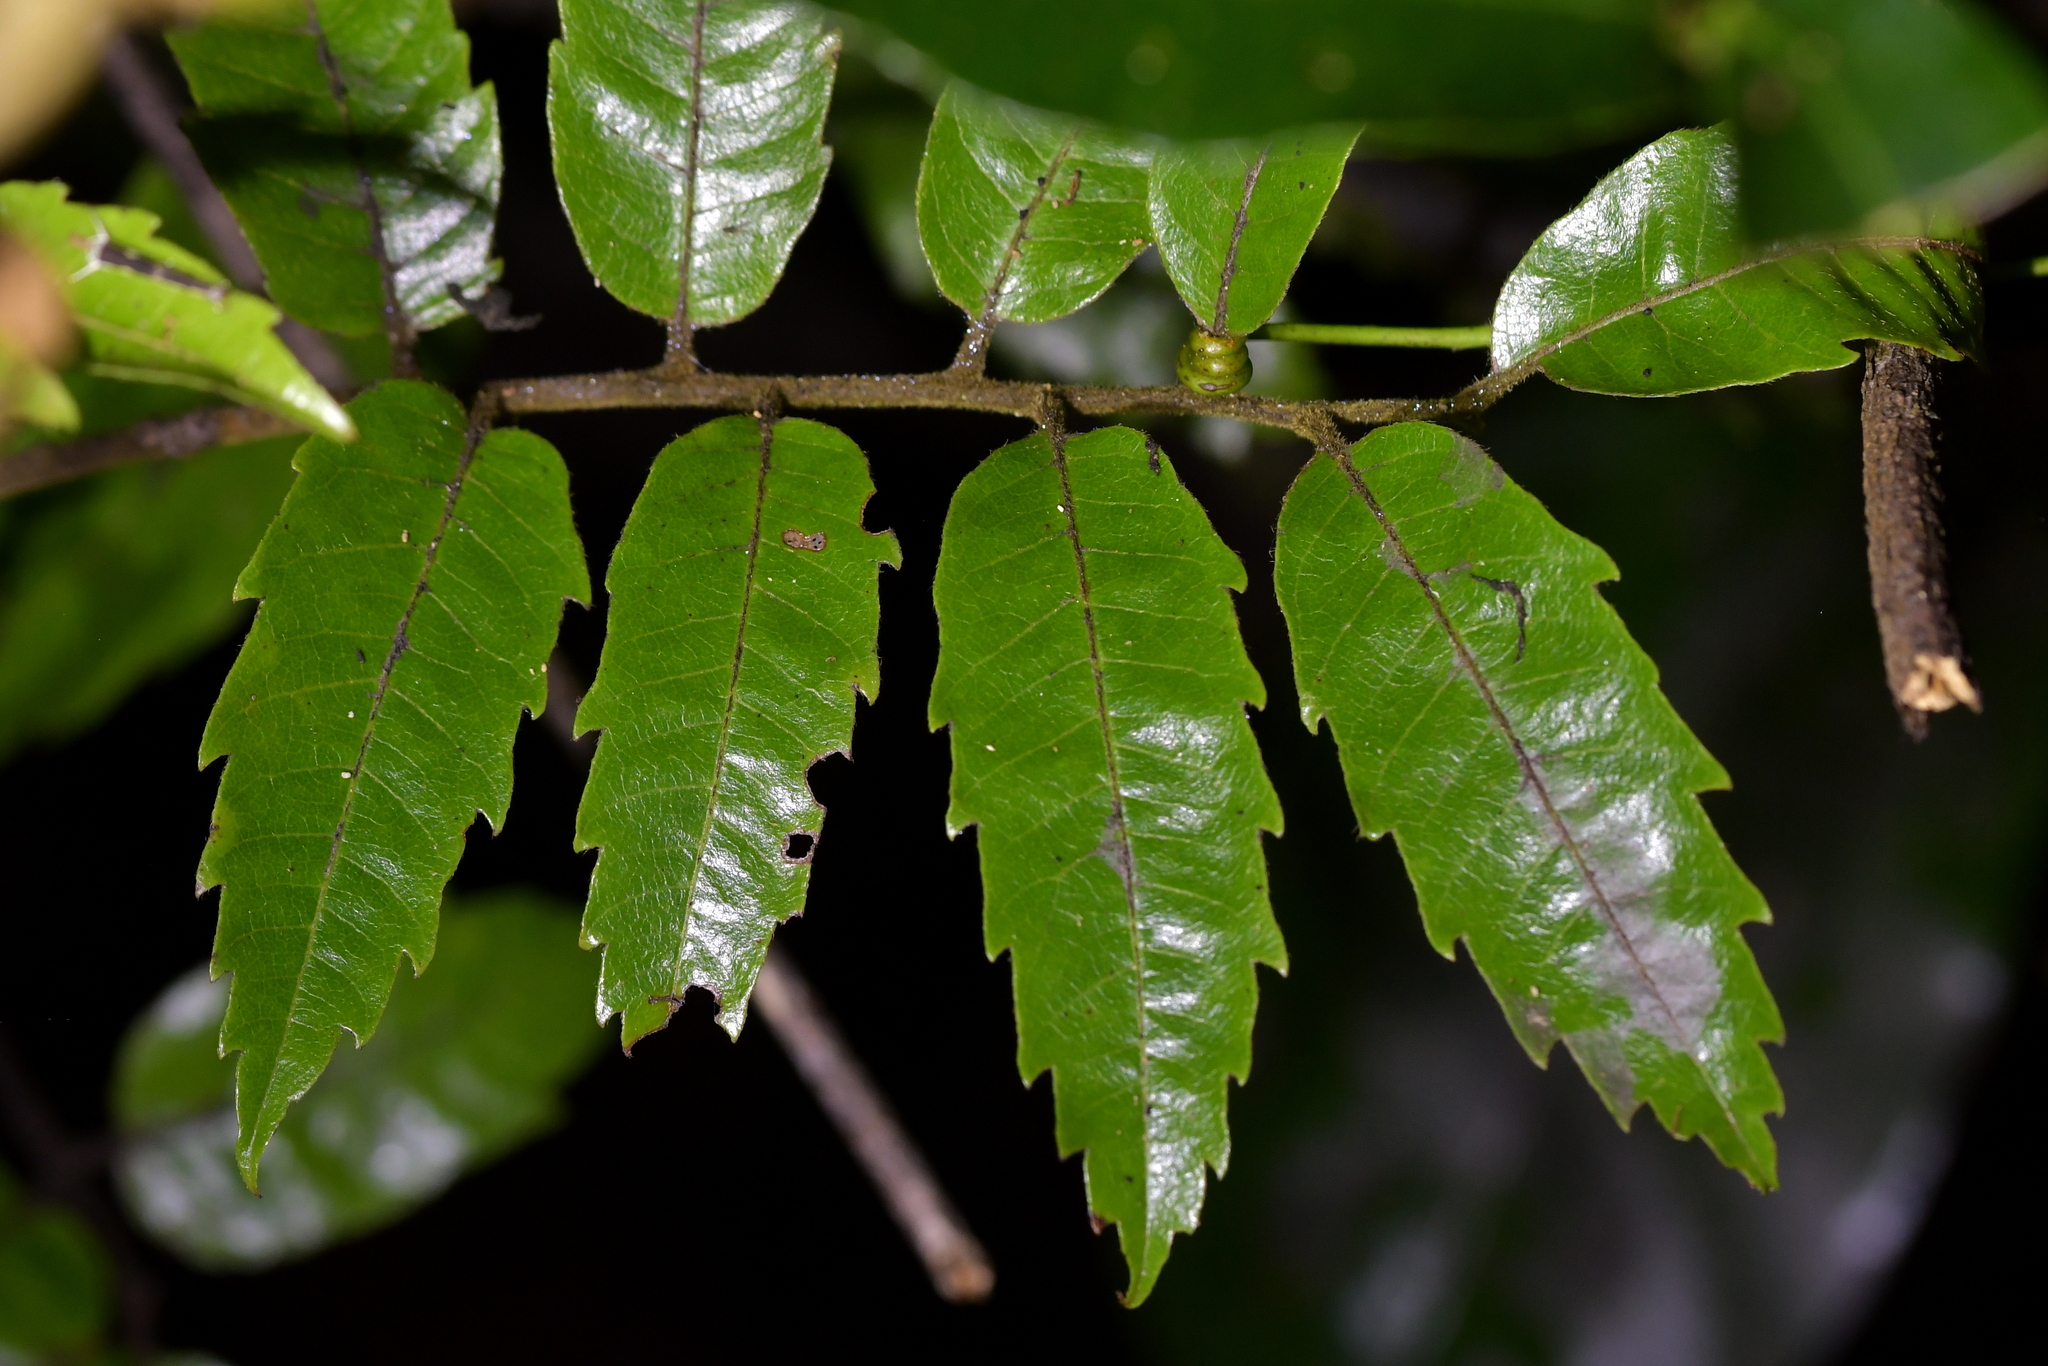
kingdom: Plantae
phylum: Tracheophyta
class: Magnoliopsida
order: Sapindales
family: Sapindaceae
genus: Alectryon
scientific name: Alectryon excelsus
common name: Three kings titoki
